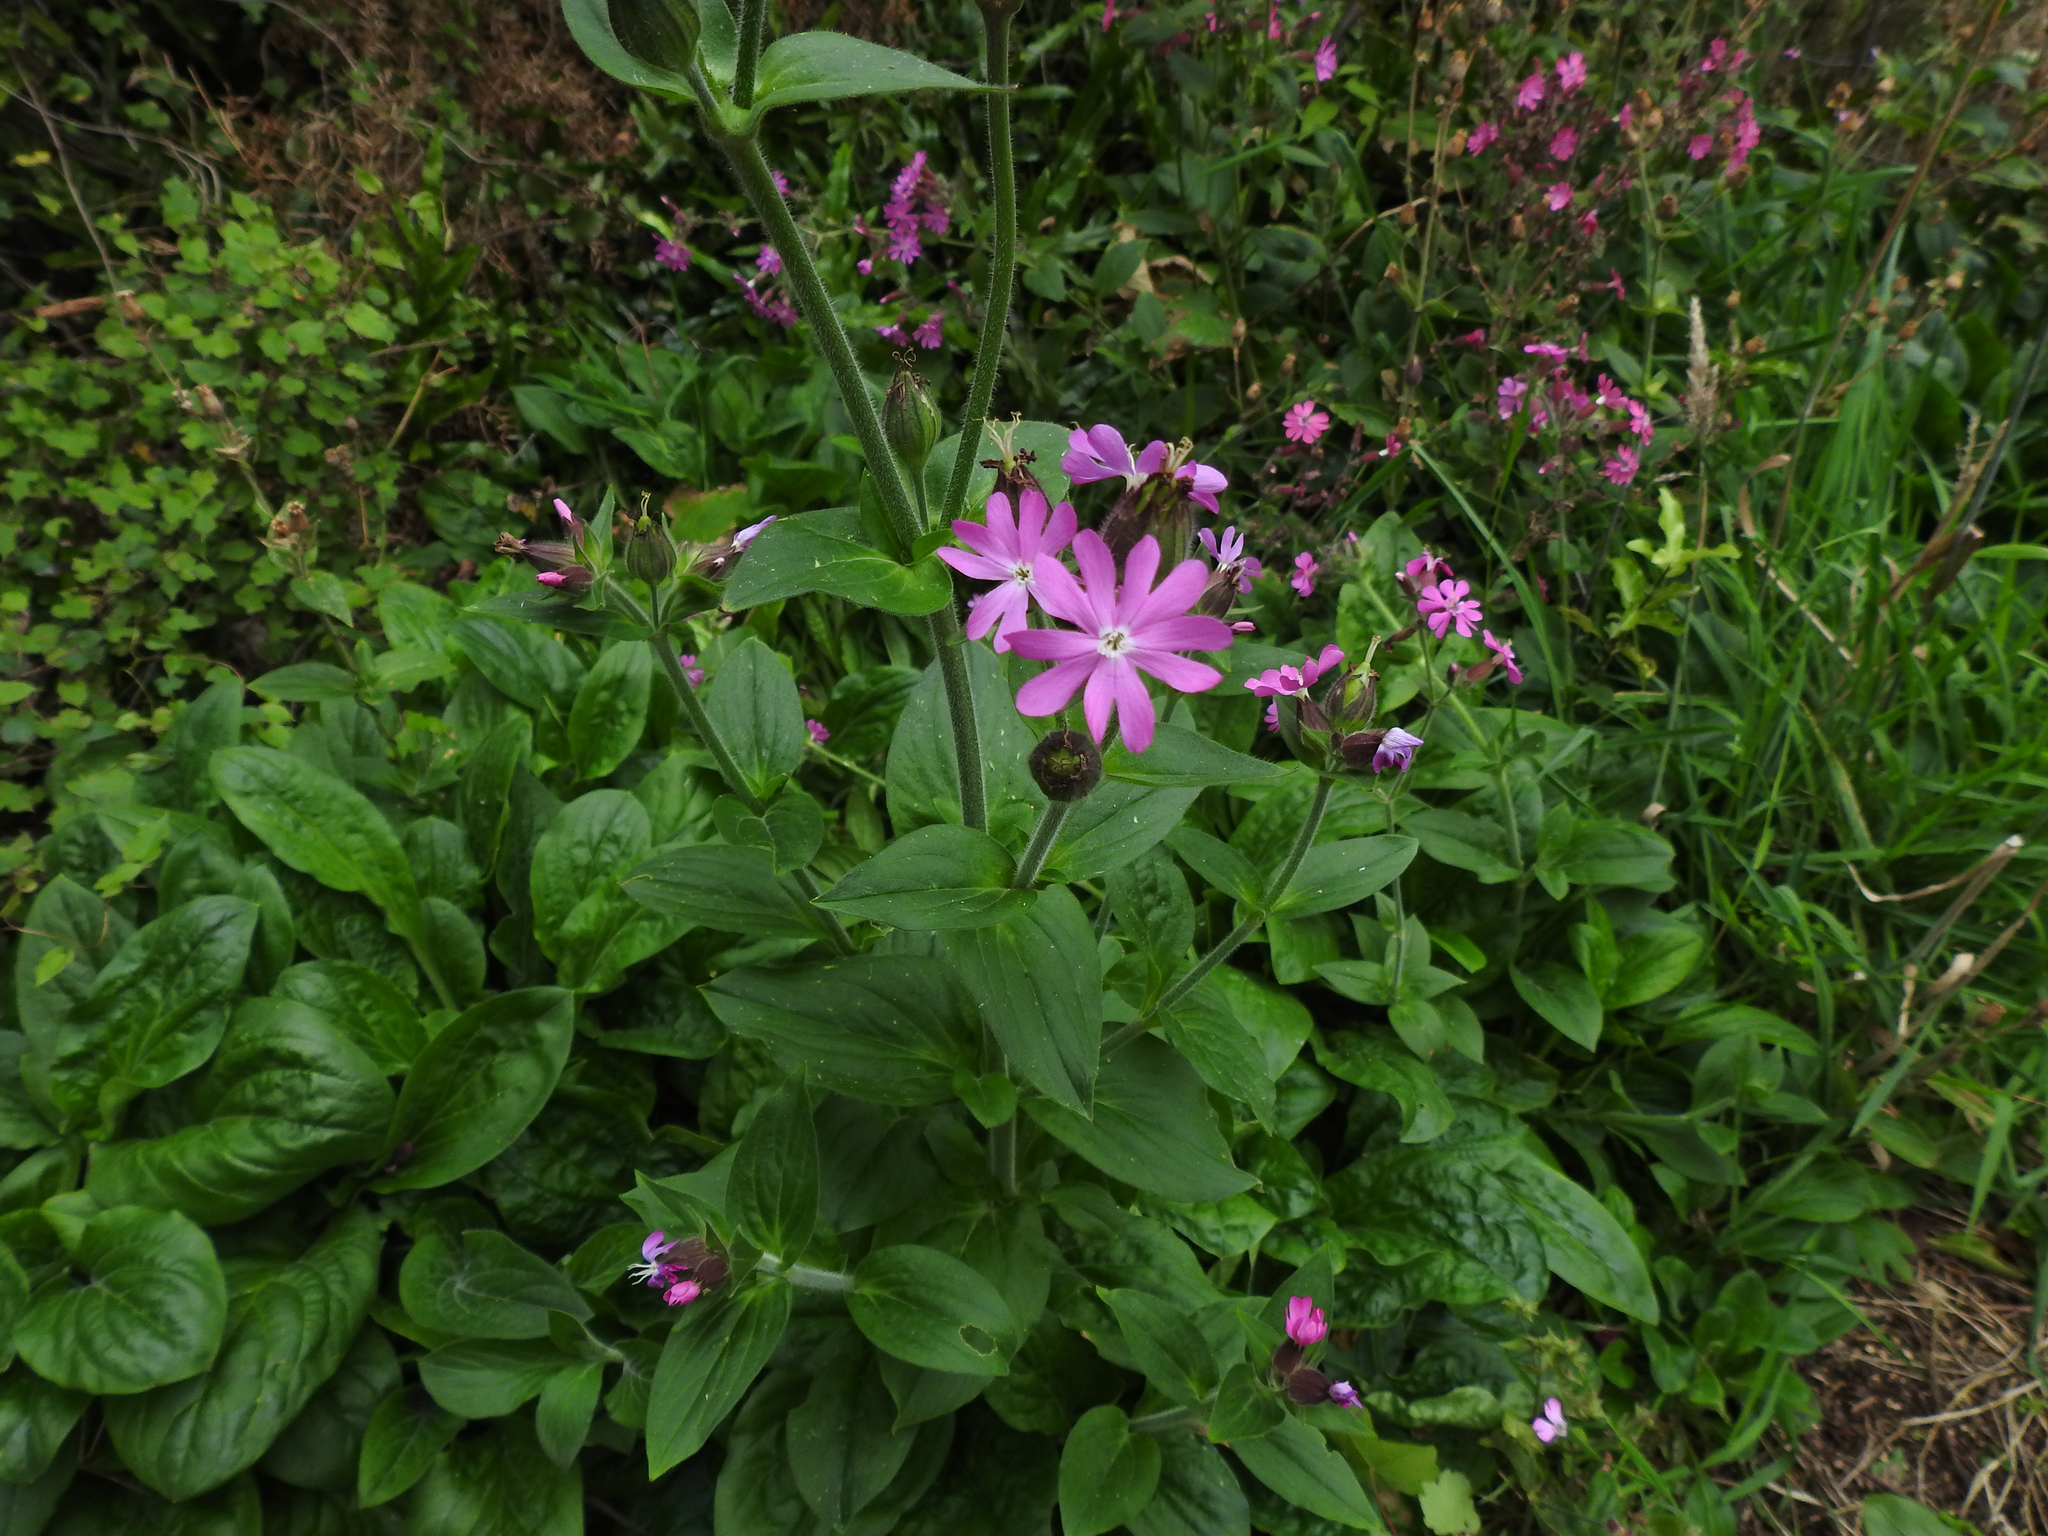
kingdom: Plantae
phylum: Tracheophyta
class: Magnoliopsida
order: Caryophyllales
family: Caryophyllaceae
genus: Silene
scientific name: Silene dioica
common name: Red campion
